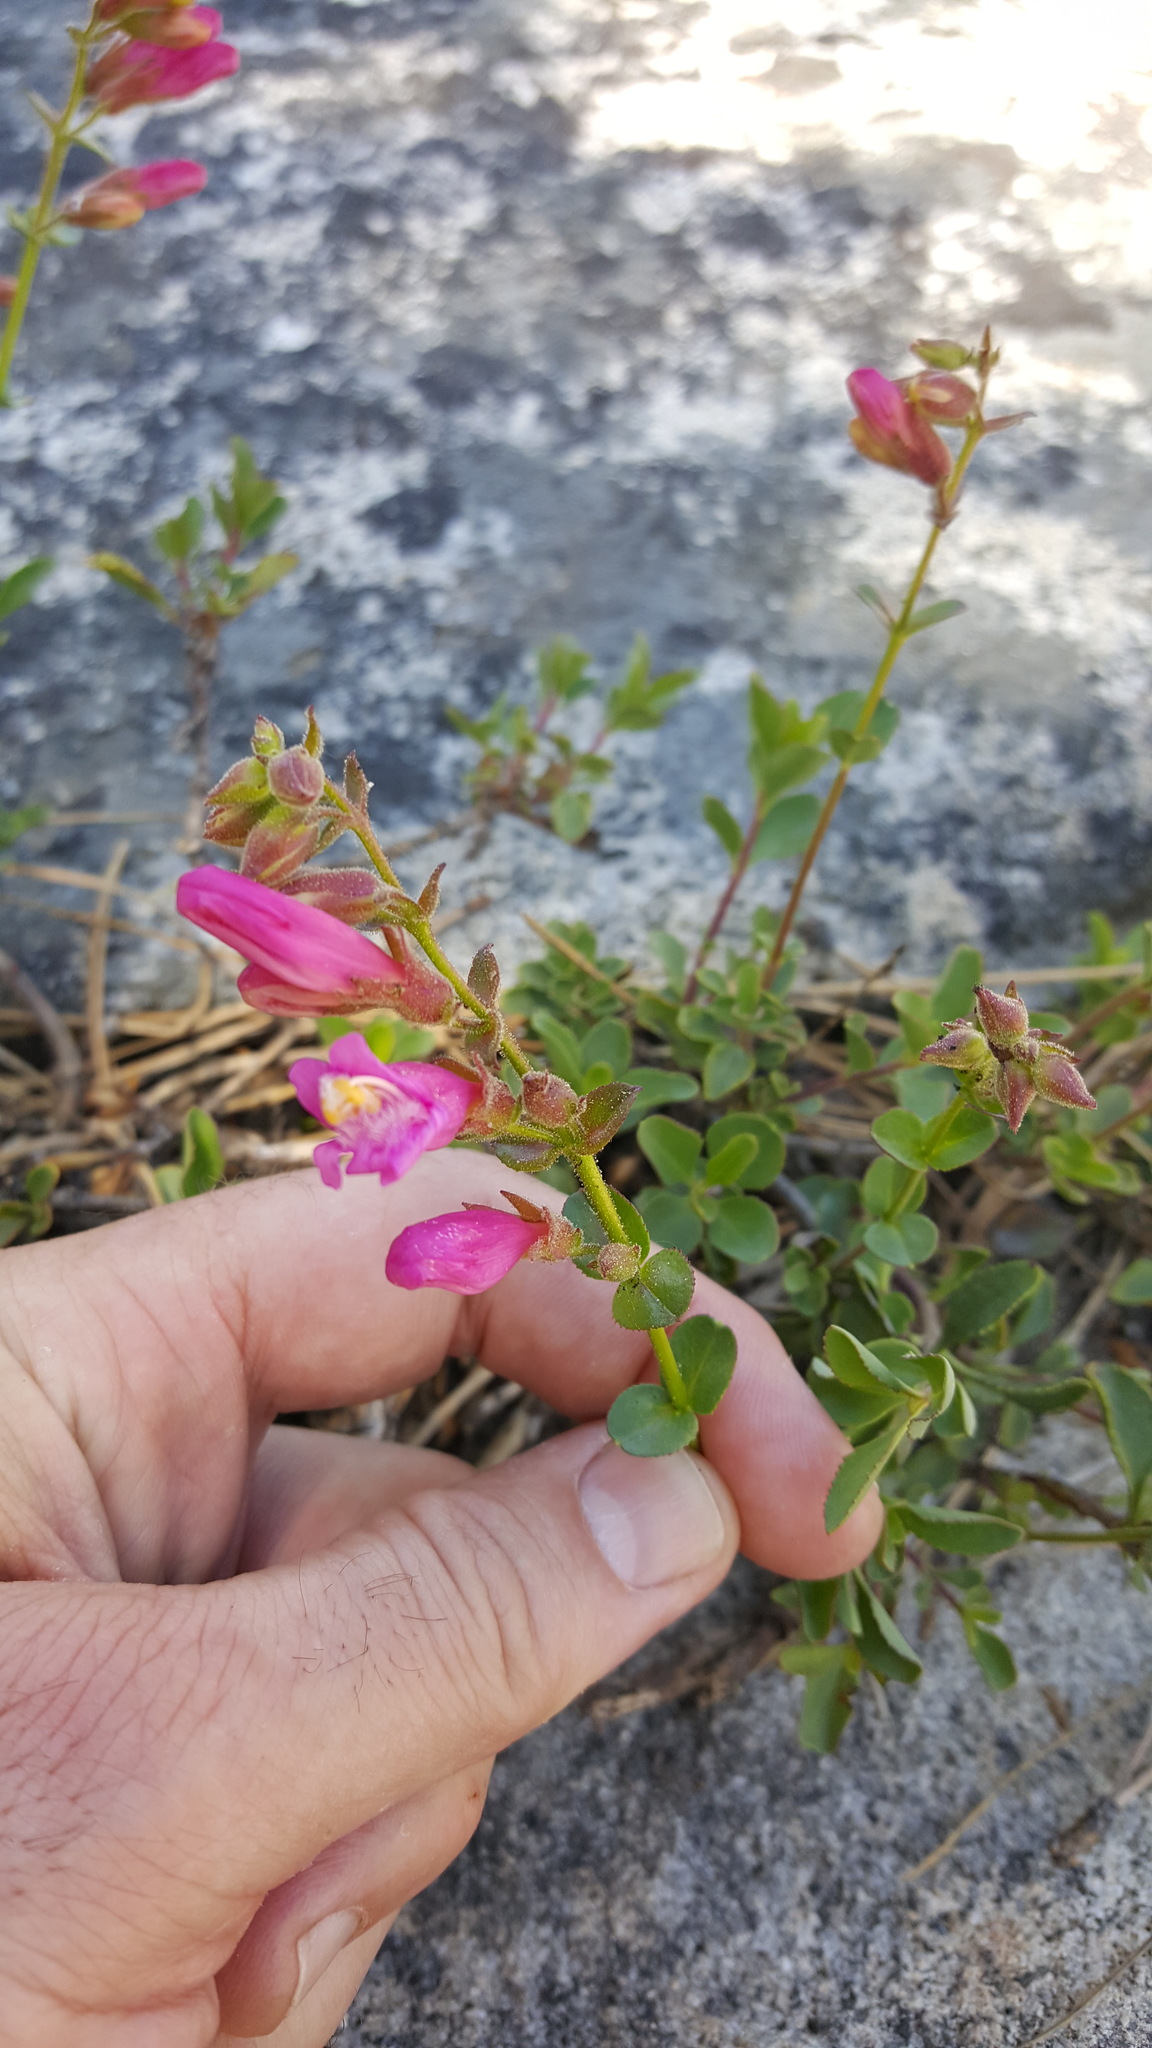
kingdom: Plantae
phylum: Tracheophyta
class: Magnoliopsida
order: Lamiales
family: Plantaginaceae
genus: Penstemon
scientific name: Penstemon newberryi
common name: Mountain-pride
